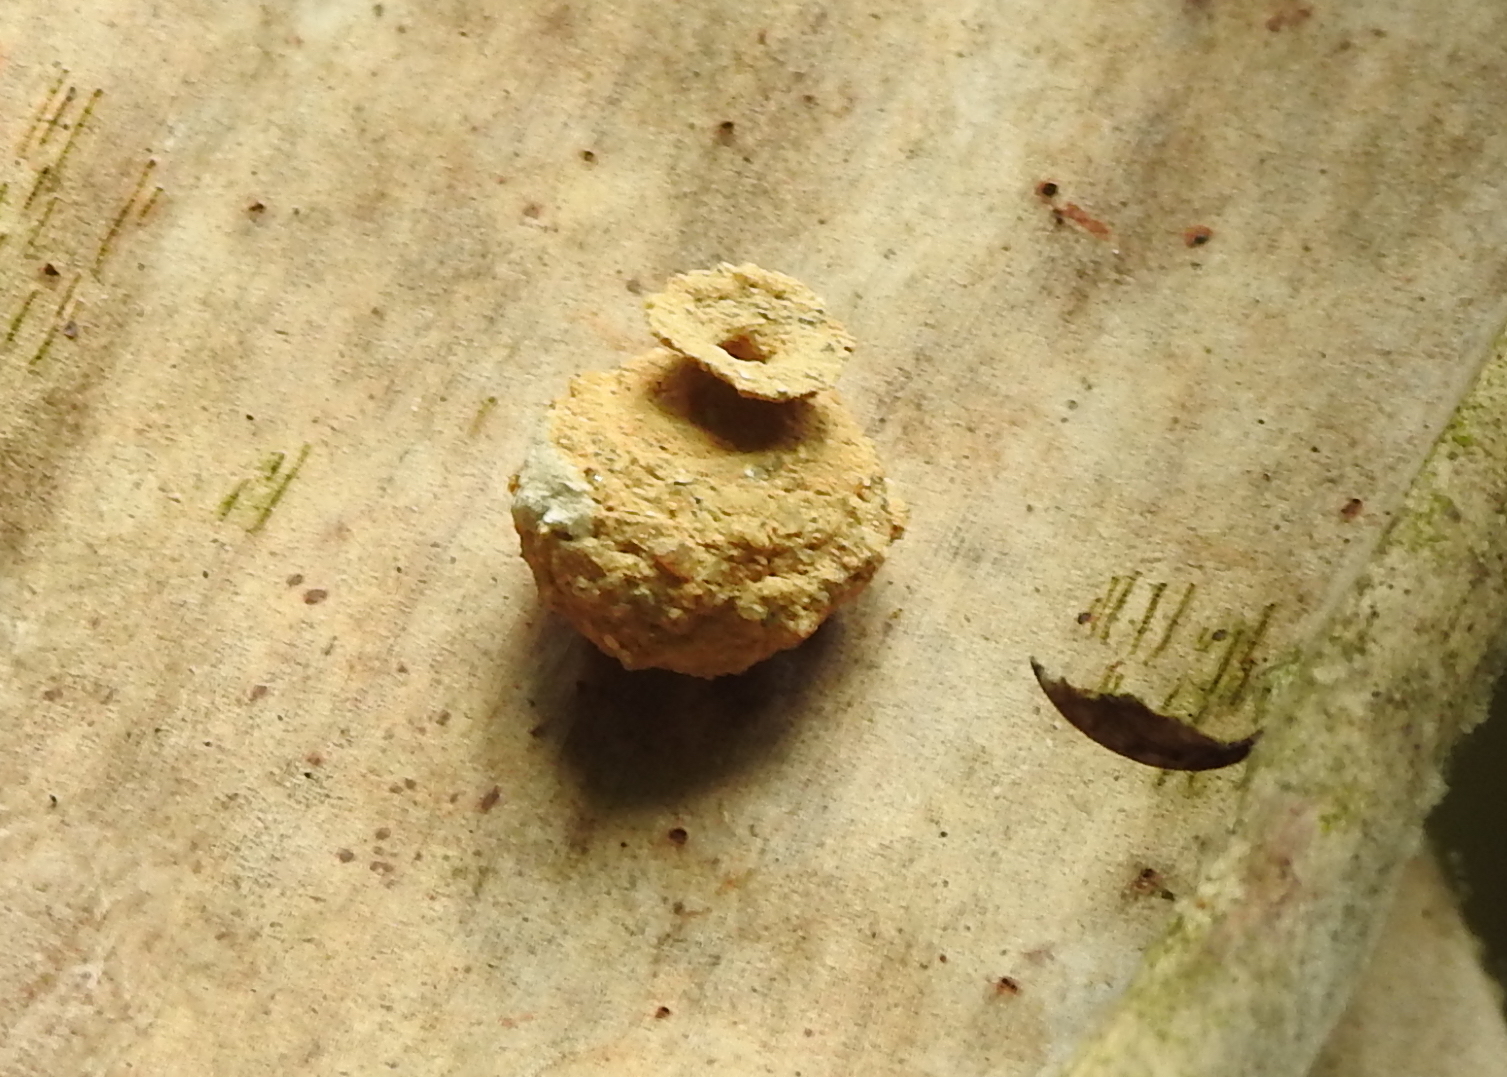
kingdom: Animalia
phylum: Arthropoda
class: Insecta
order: Hymenoptera
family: Vespidae
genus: Eumenes
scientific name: Eumenes
